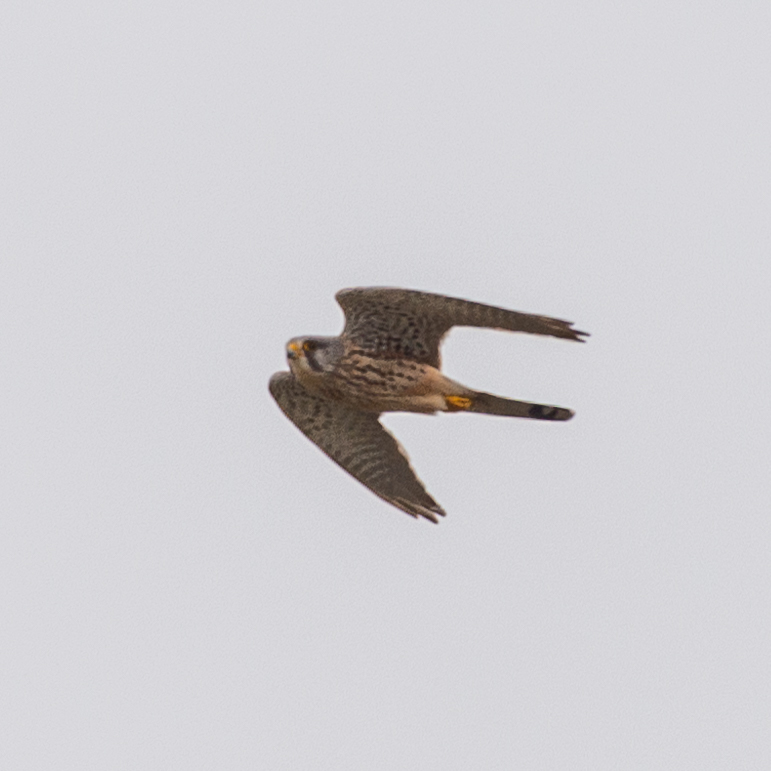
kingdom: Animalia
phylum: Chordata
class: Aves
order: Falconiformes
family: Falconidae
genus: Falco
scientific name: Falco tinnunculus
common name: Common kestrel
